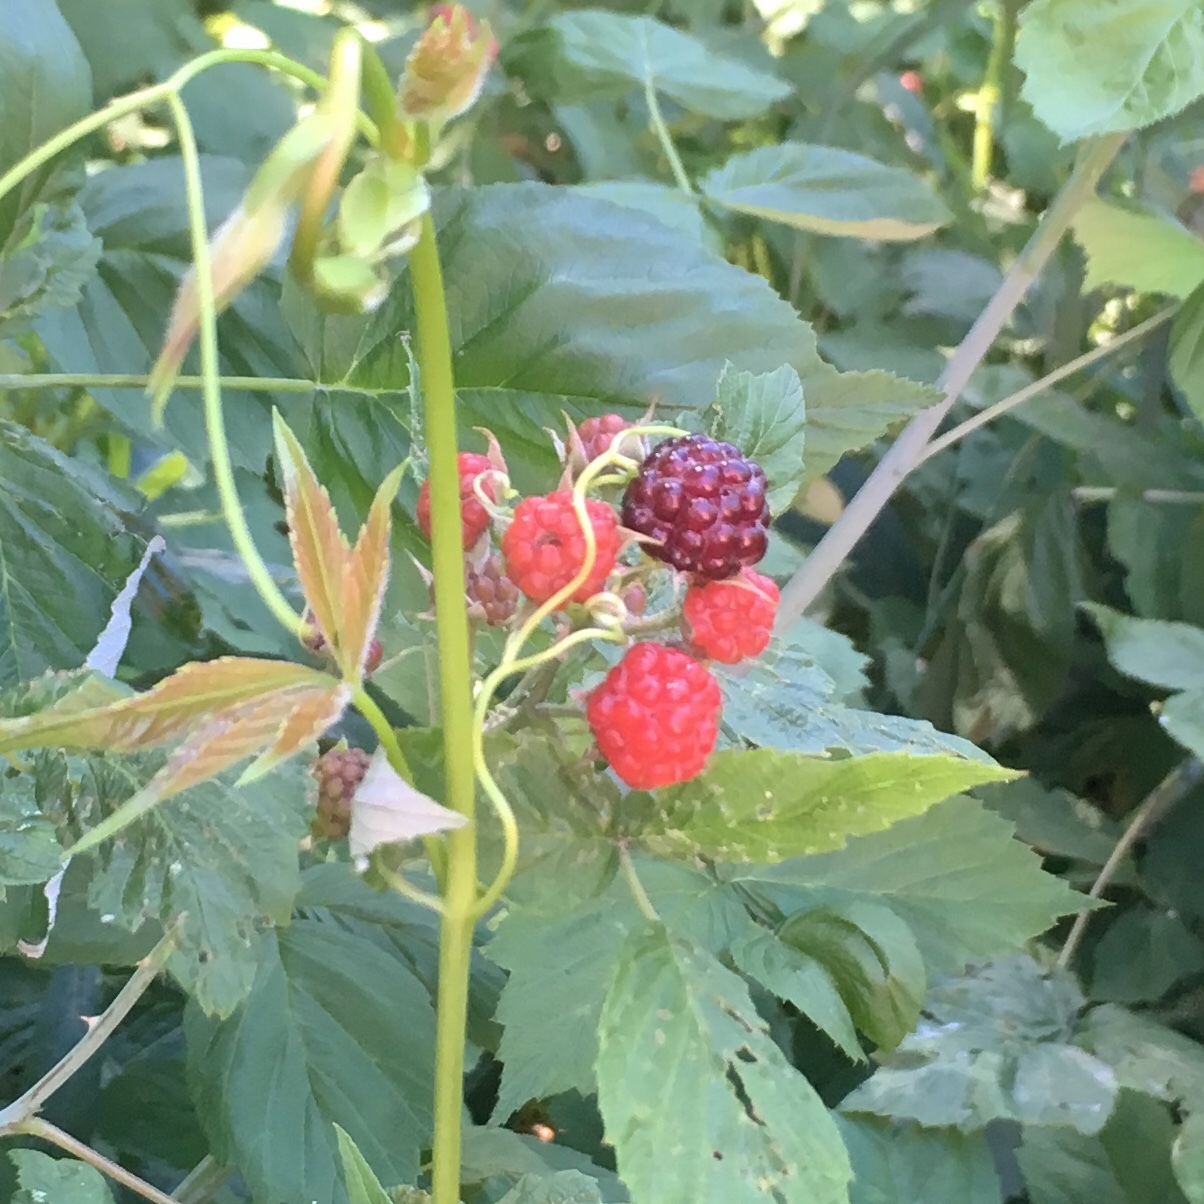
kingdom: Plantae
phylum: Tracheophyta
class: Magnoliopsida
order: Rosales
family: Rosaceae
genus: Rubus
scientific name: Rubus occidentalis
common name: Black raspberry
